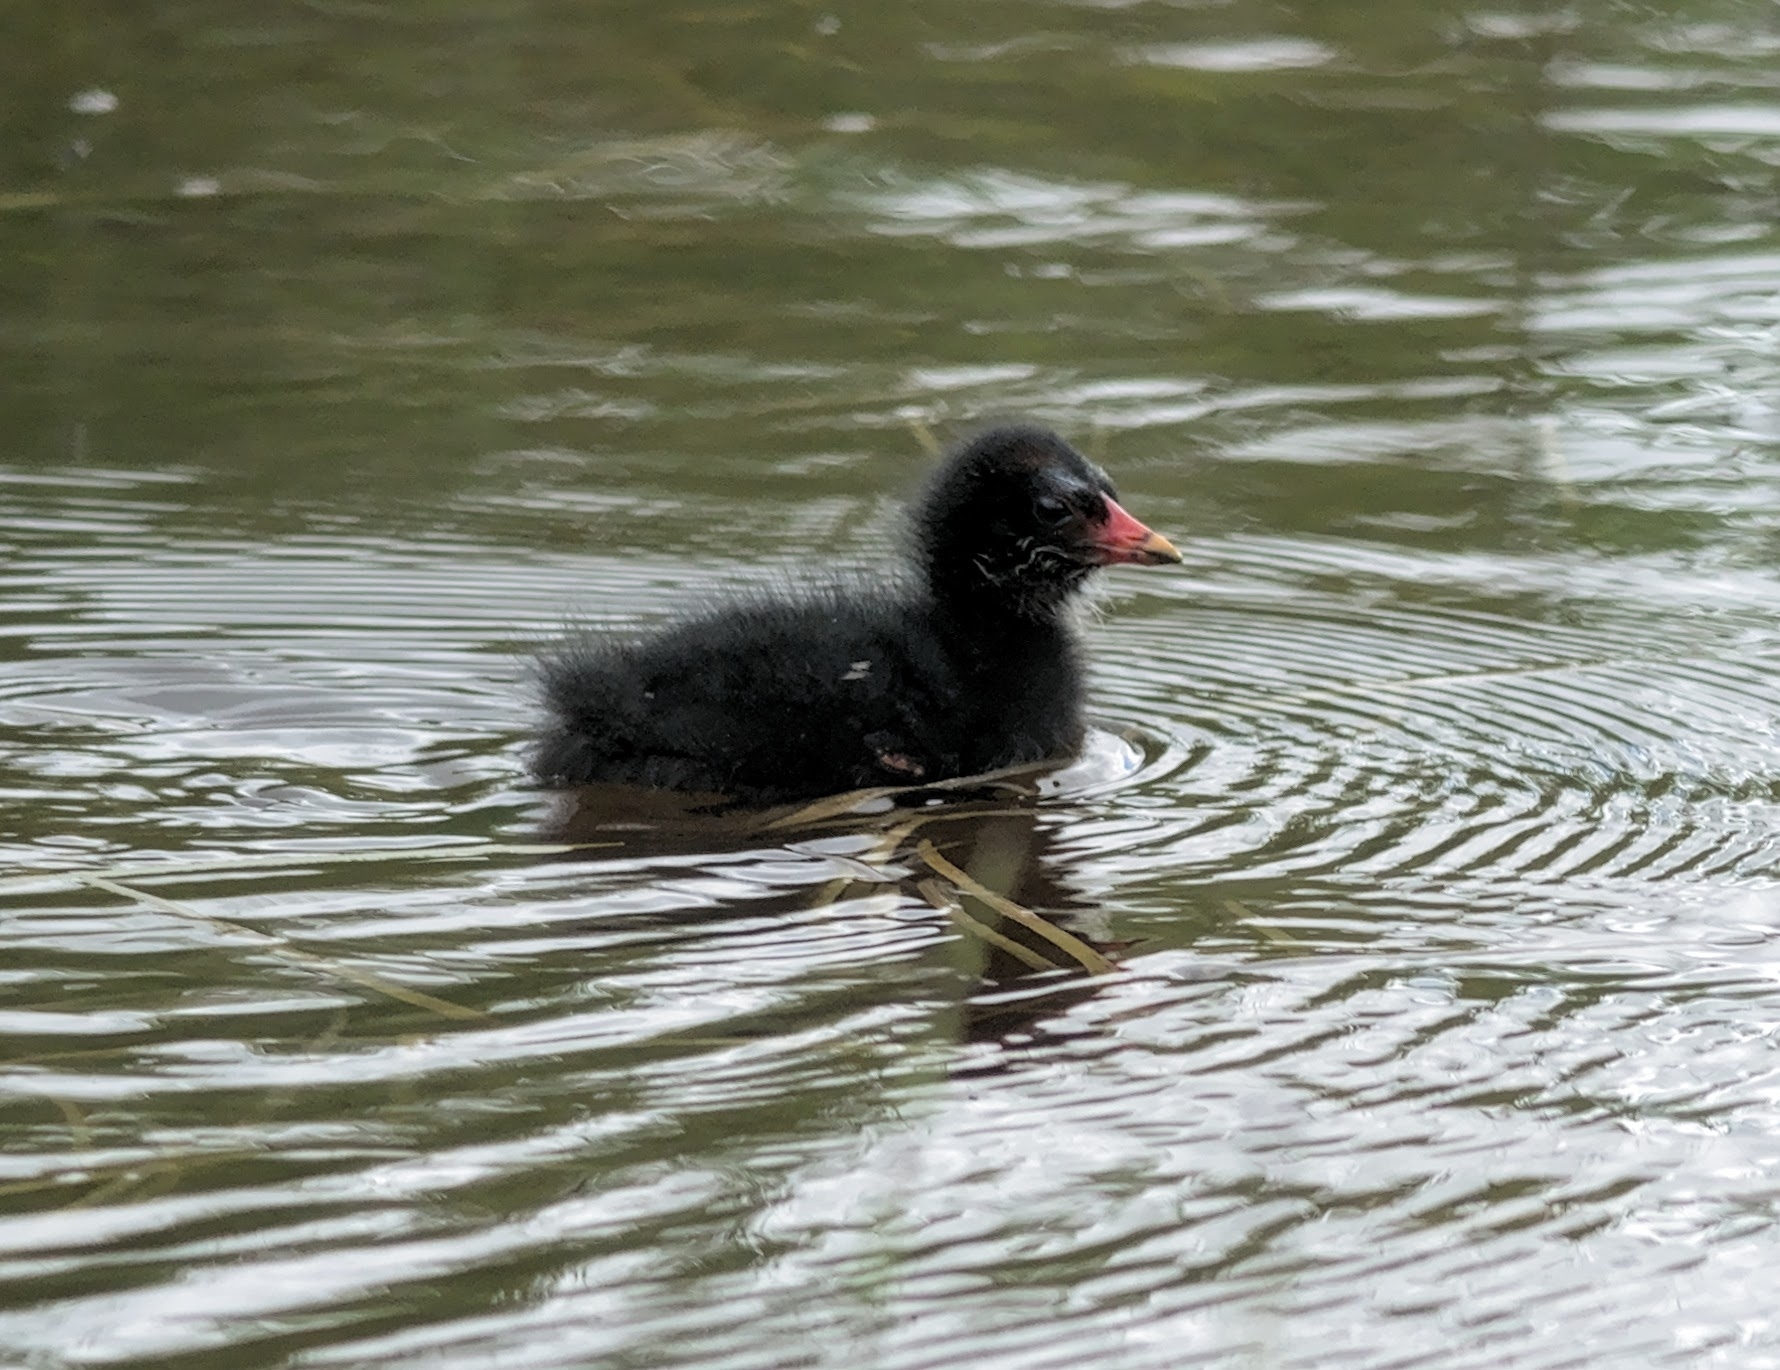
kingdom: Animalia
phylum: Chordata
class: Aves
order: Gruiformes
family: Rallidae
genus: Gallinula
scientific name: Gallinula chloropus
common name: Common moorhen
